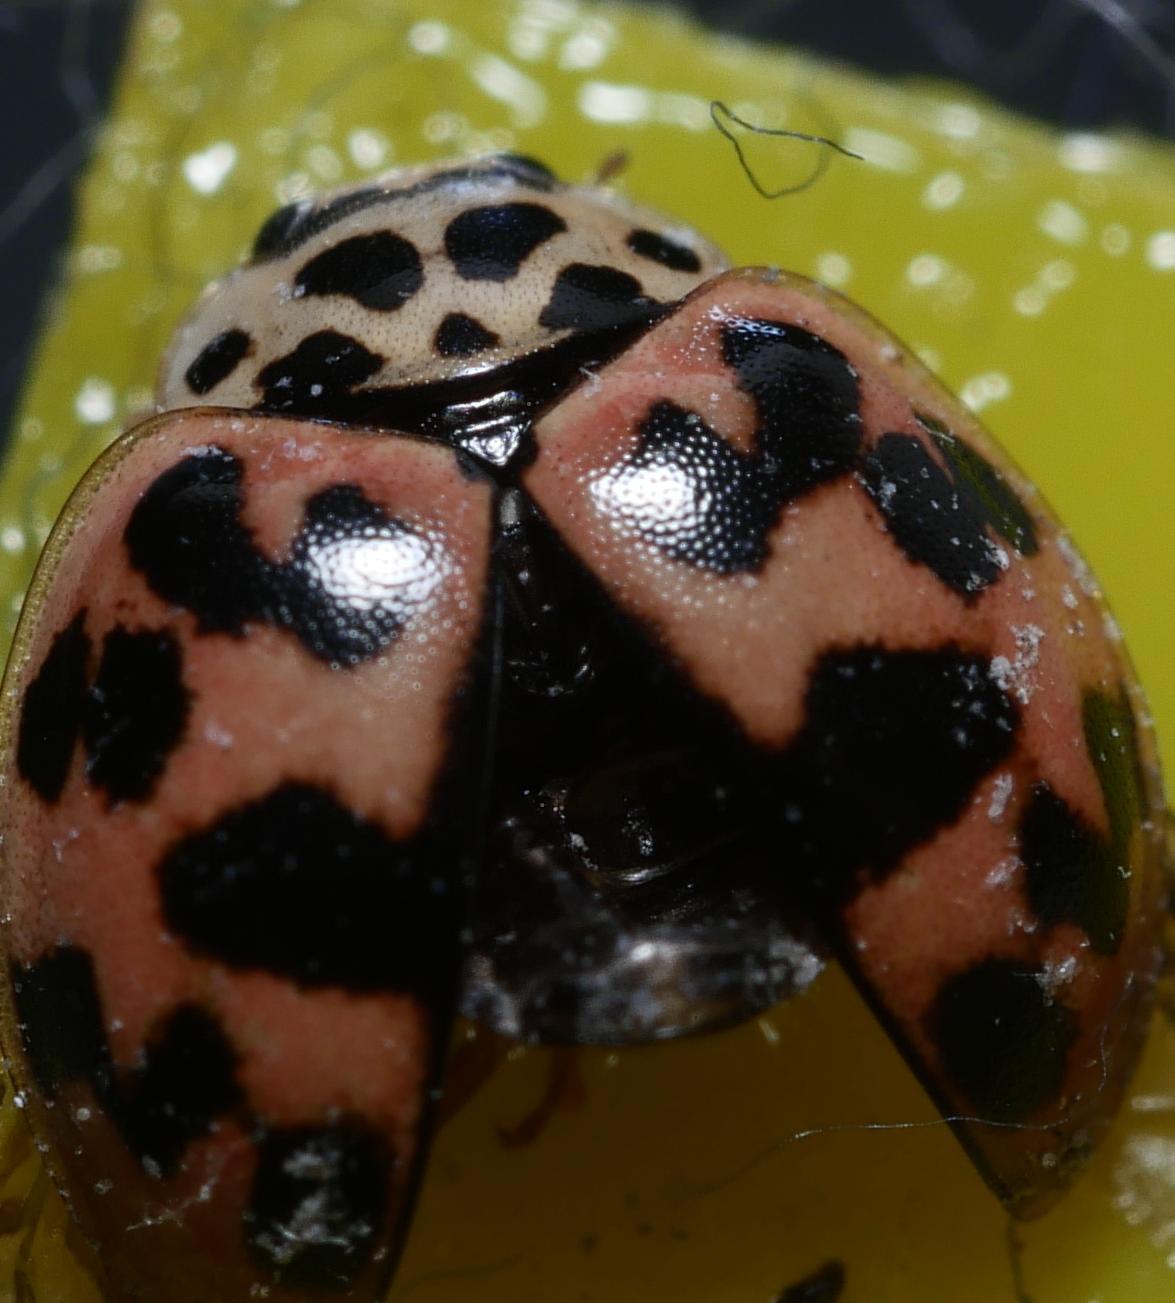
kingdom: Animalia
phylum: Arthropoda
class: Insecta
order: Coleoptera
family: Coccinellidae
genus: Oenopia
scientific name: Oenopia conglobata
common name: Ladybird beetle
